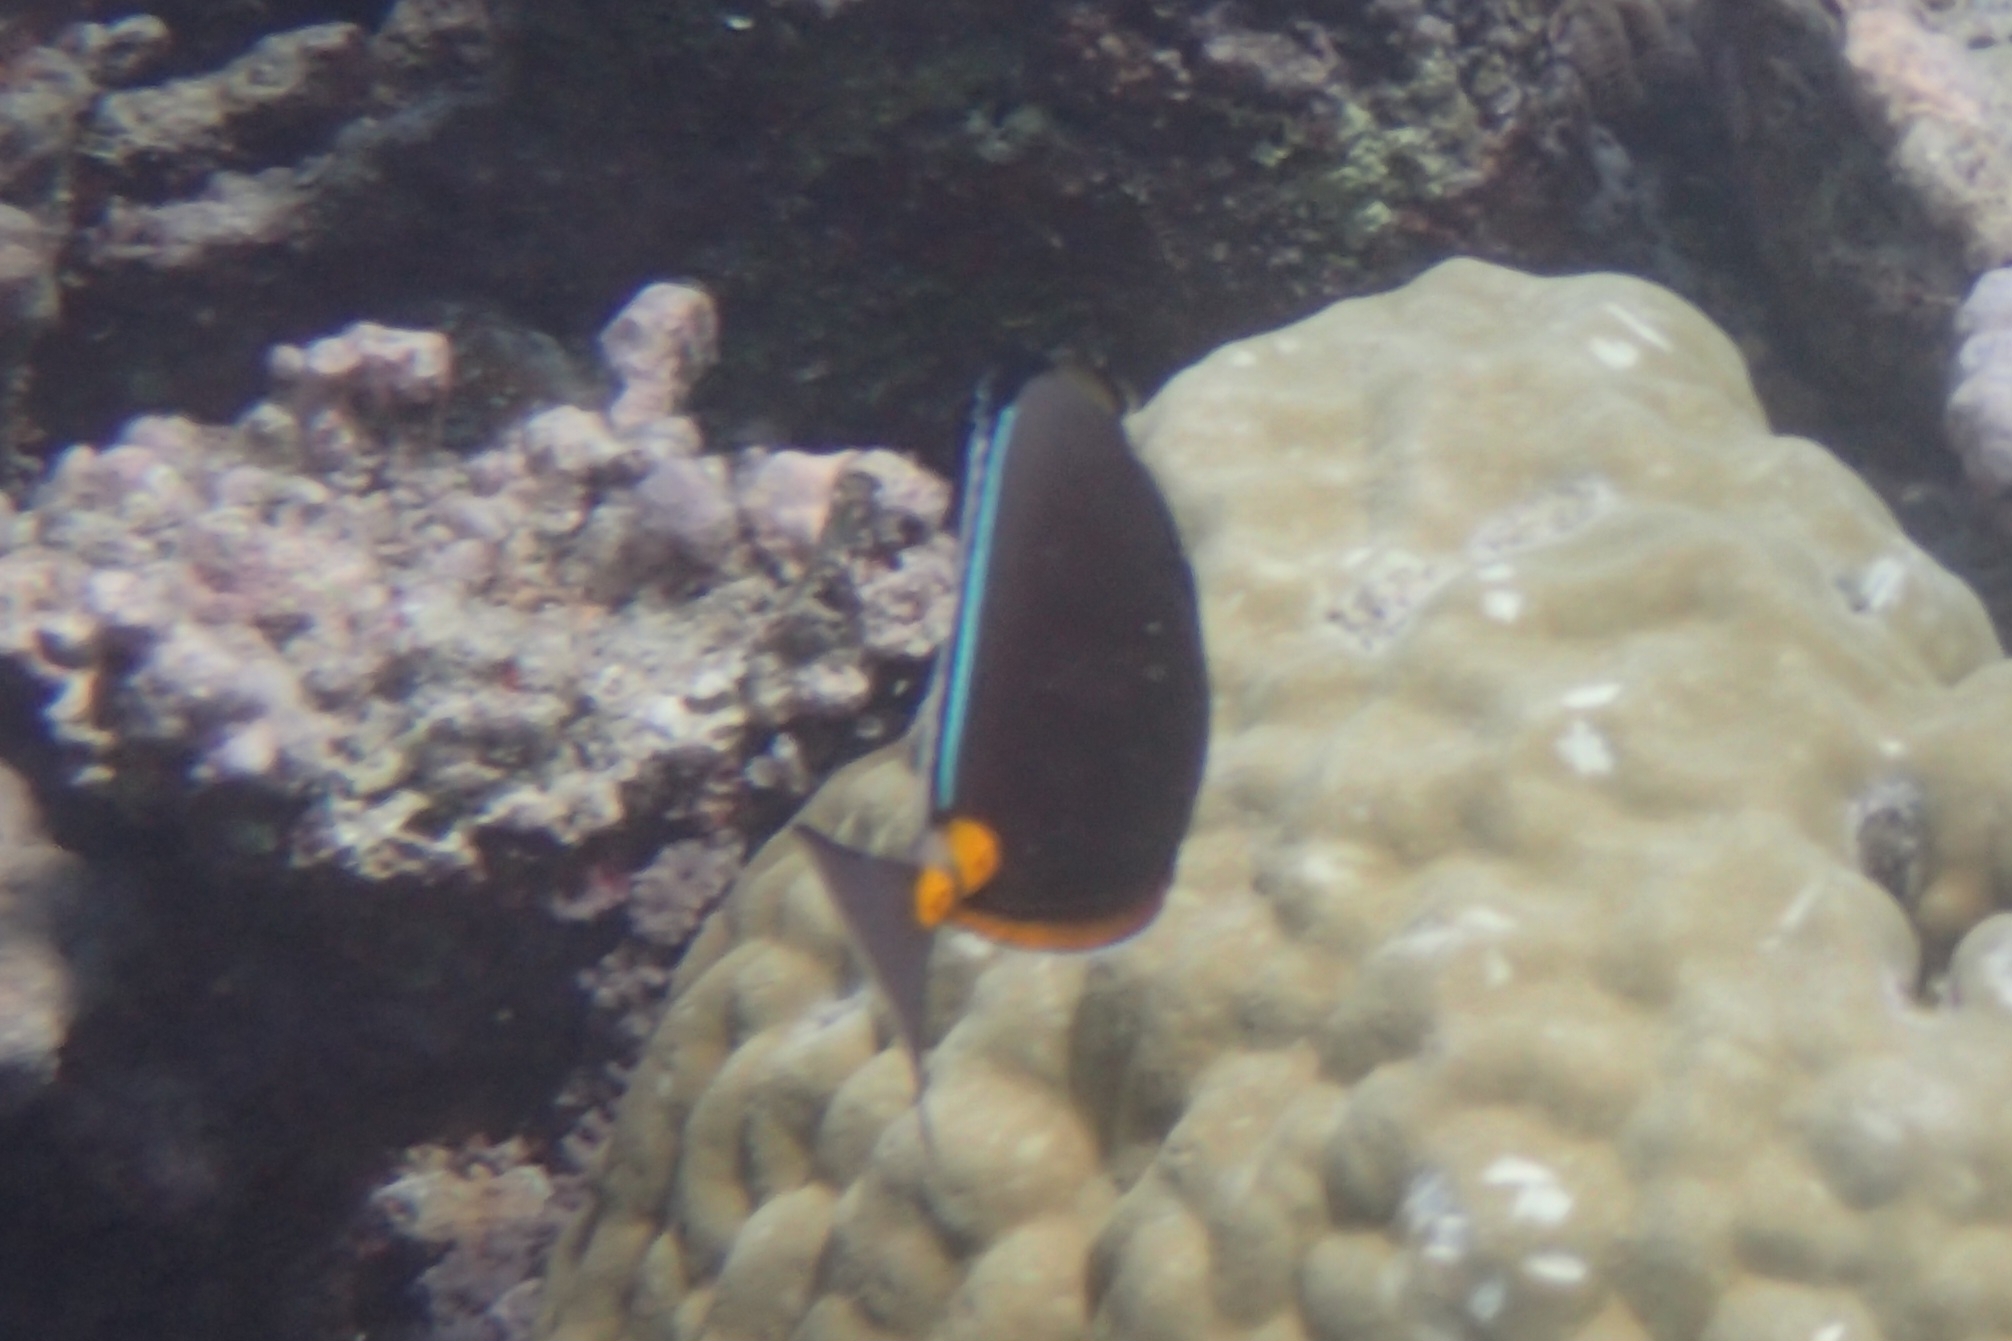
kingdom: Animalia
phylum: Chordata
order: Perciformes
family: Acanthuridae
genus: Naso
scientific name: Naso lituratus
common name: Orangespine unicornfish
